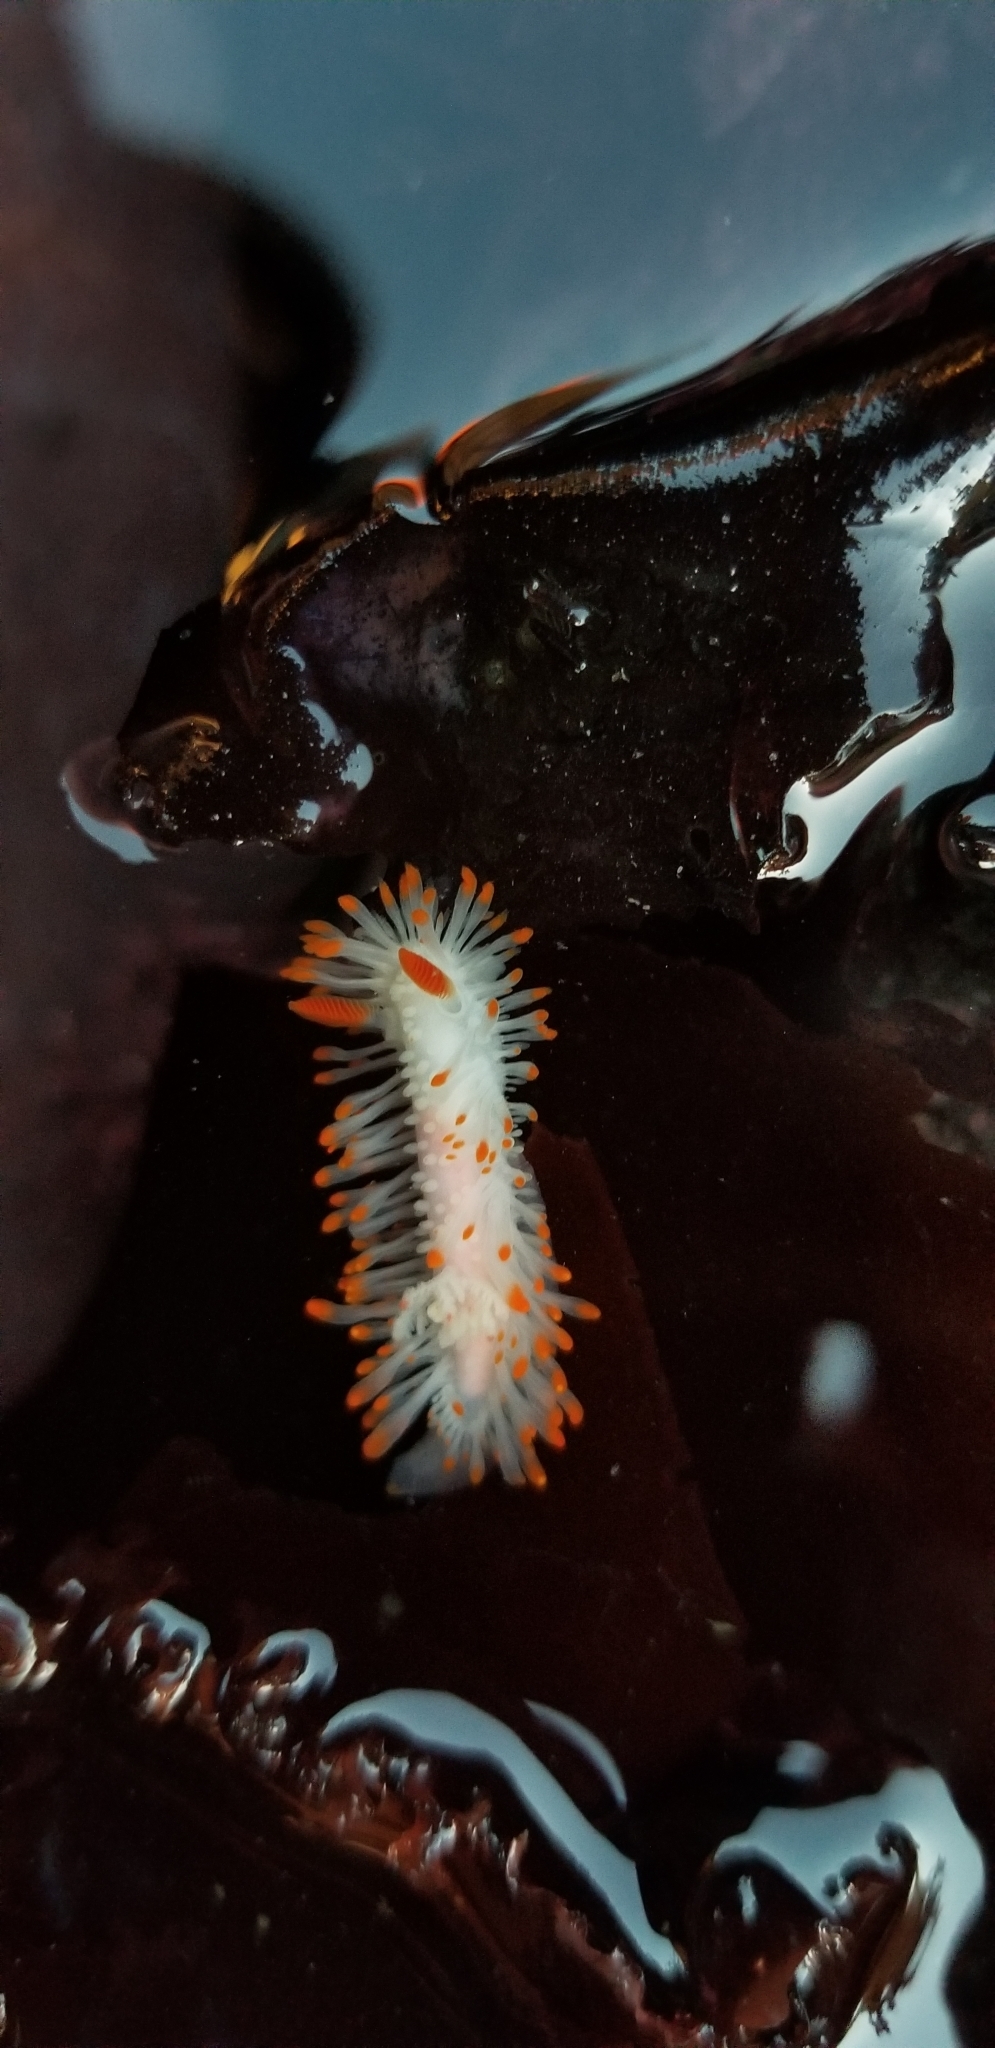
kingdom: Animalia
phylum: Mollusca
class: Gastropoda
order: Nudibranchia
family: Polyceridae
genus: Limacia
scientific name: Limacia cockerelli
